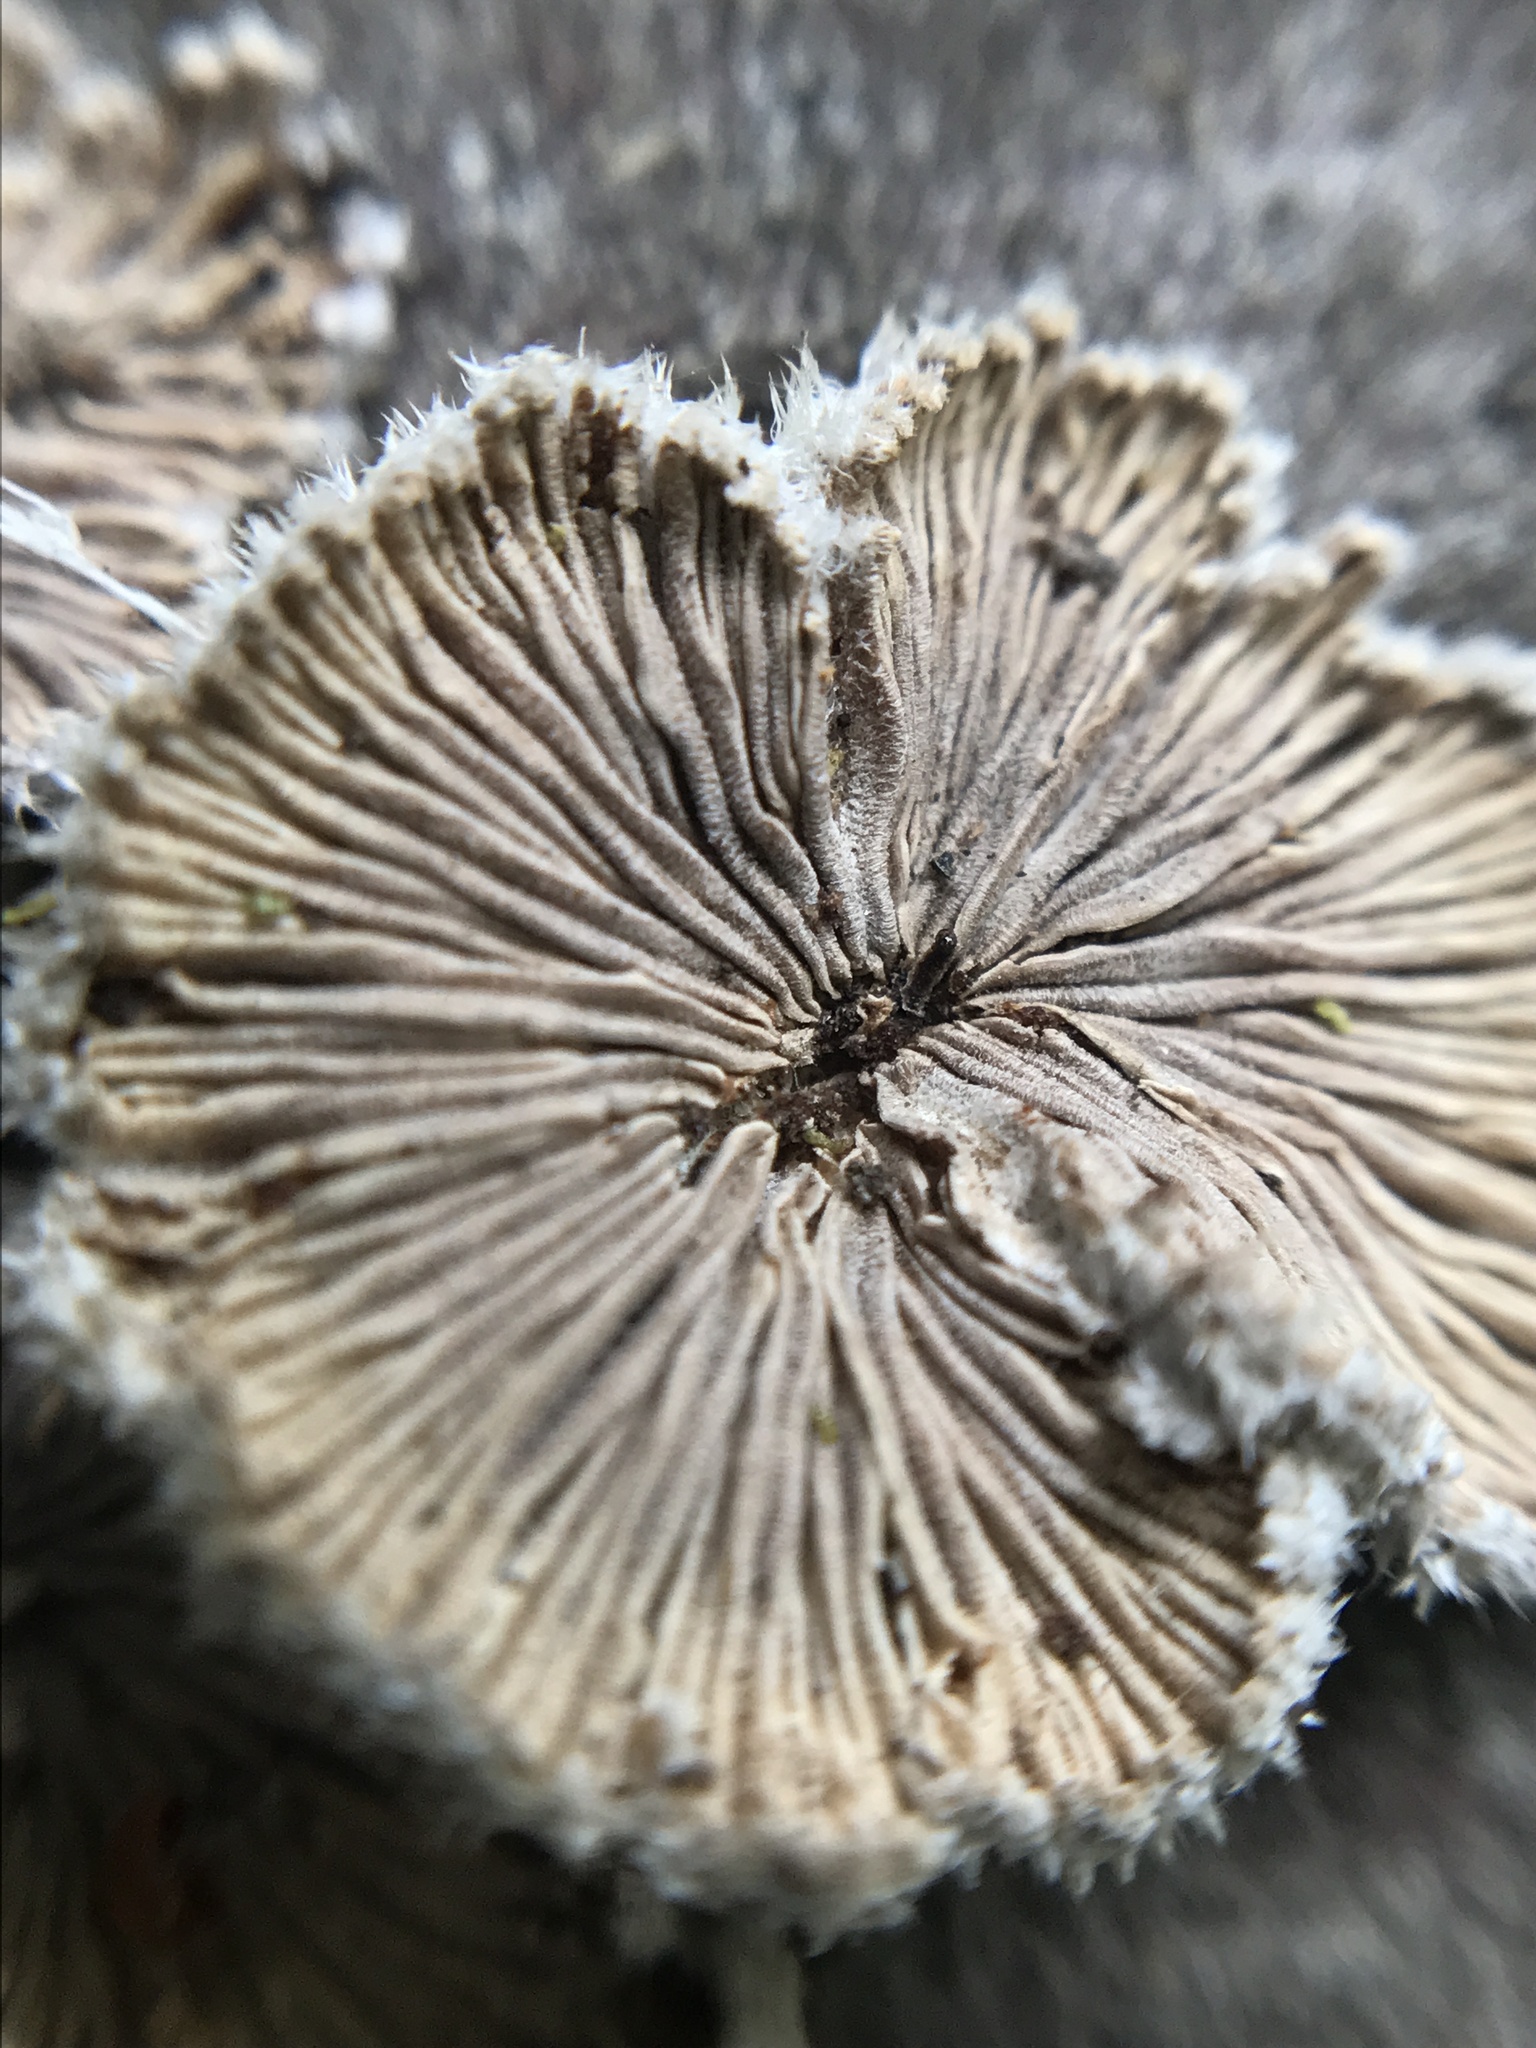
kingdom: Fungi
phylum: Basidiomycota
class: Agaricomycetes
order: Agaricales
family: Schizophyllaceae
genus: Schizophyllum
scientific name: Schizophyllum commune
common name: Common porecrust
